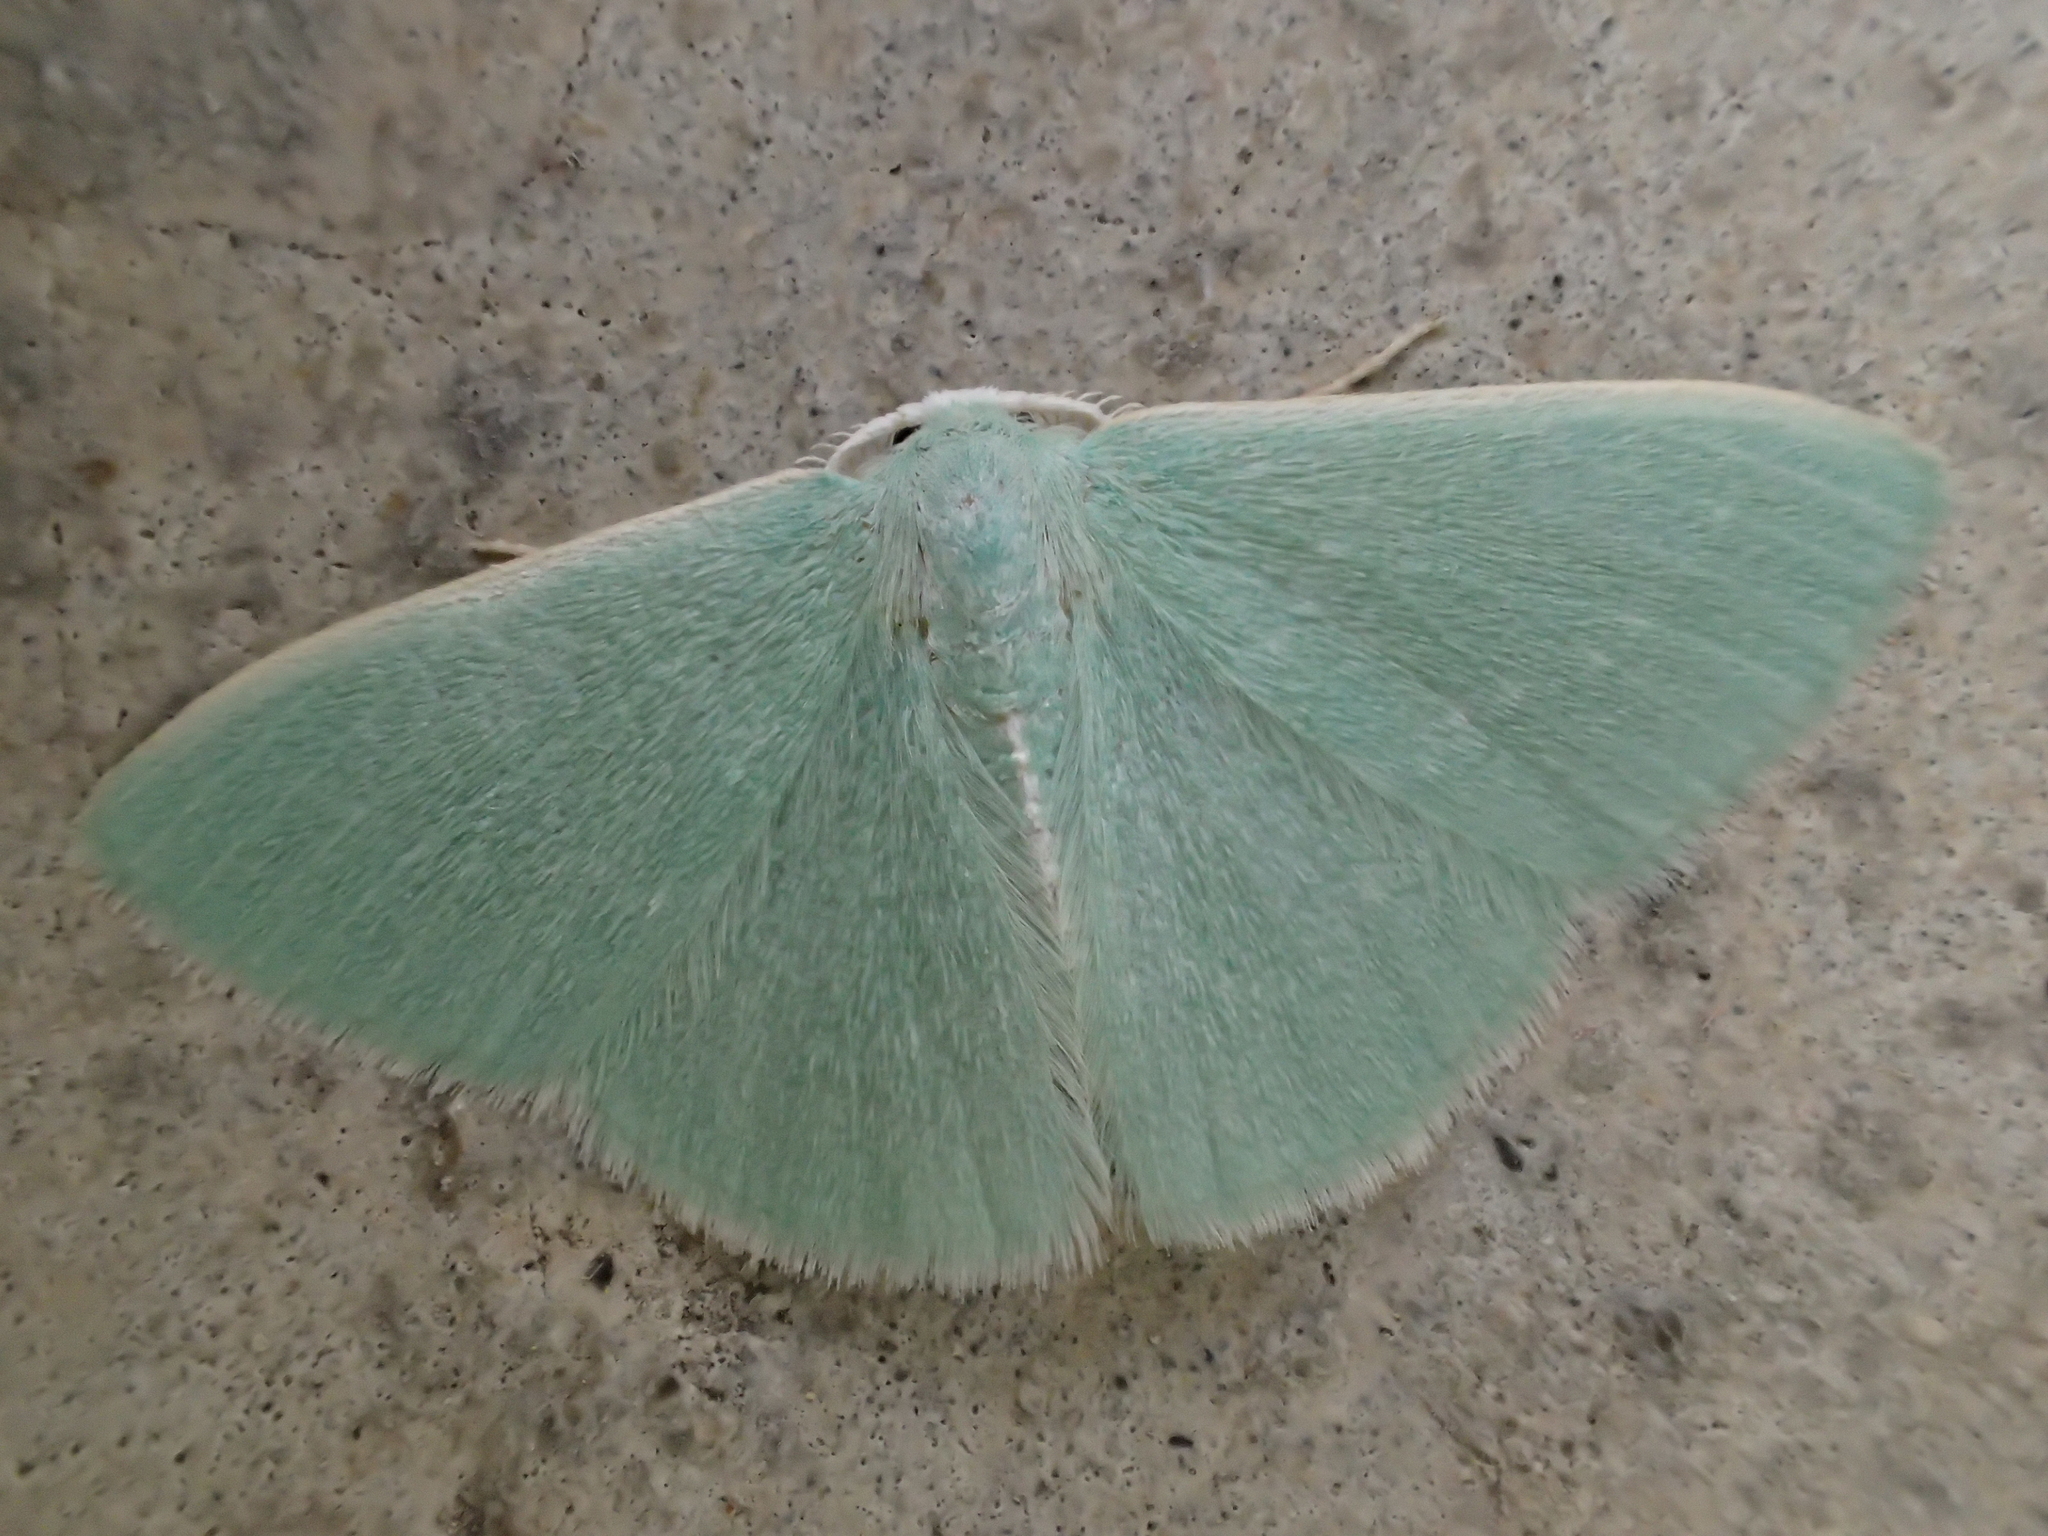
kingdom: Animalia
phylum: Arthropoda
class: Insecta
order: Lepidoptera
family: Geometridae
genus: Xenochlorodes
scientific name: Xenochlorodes olympiaria
